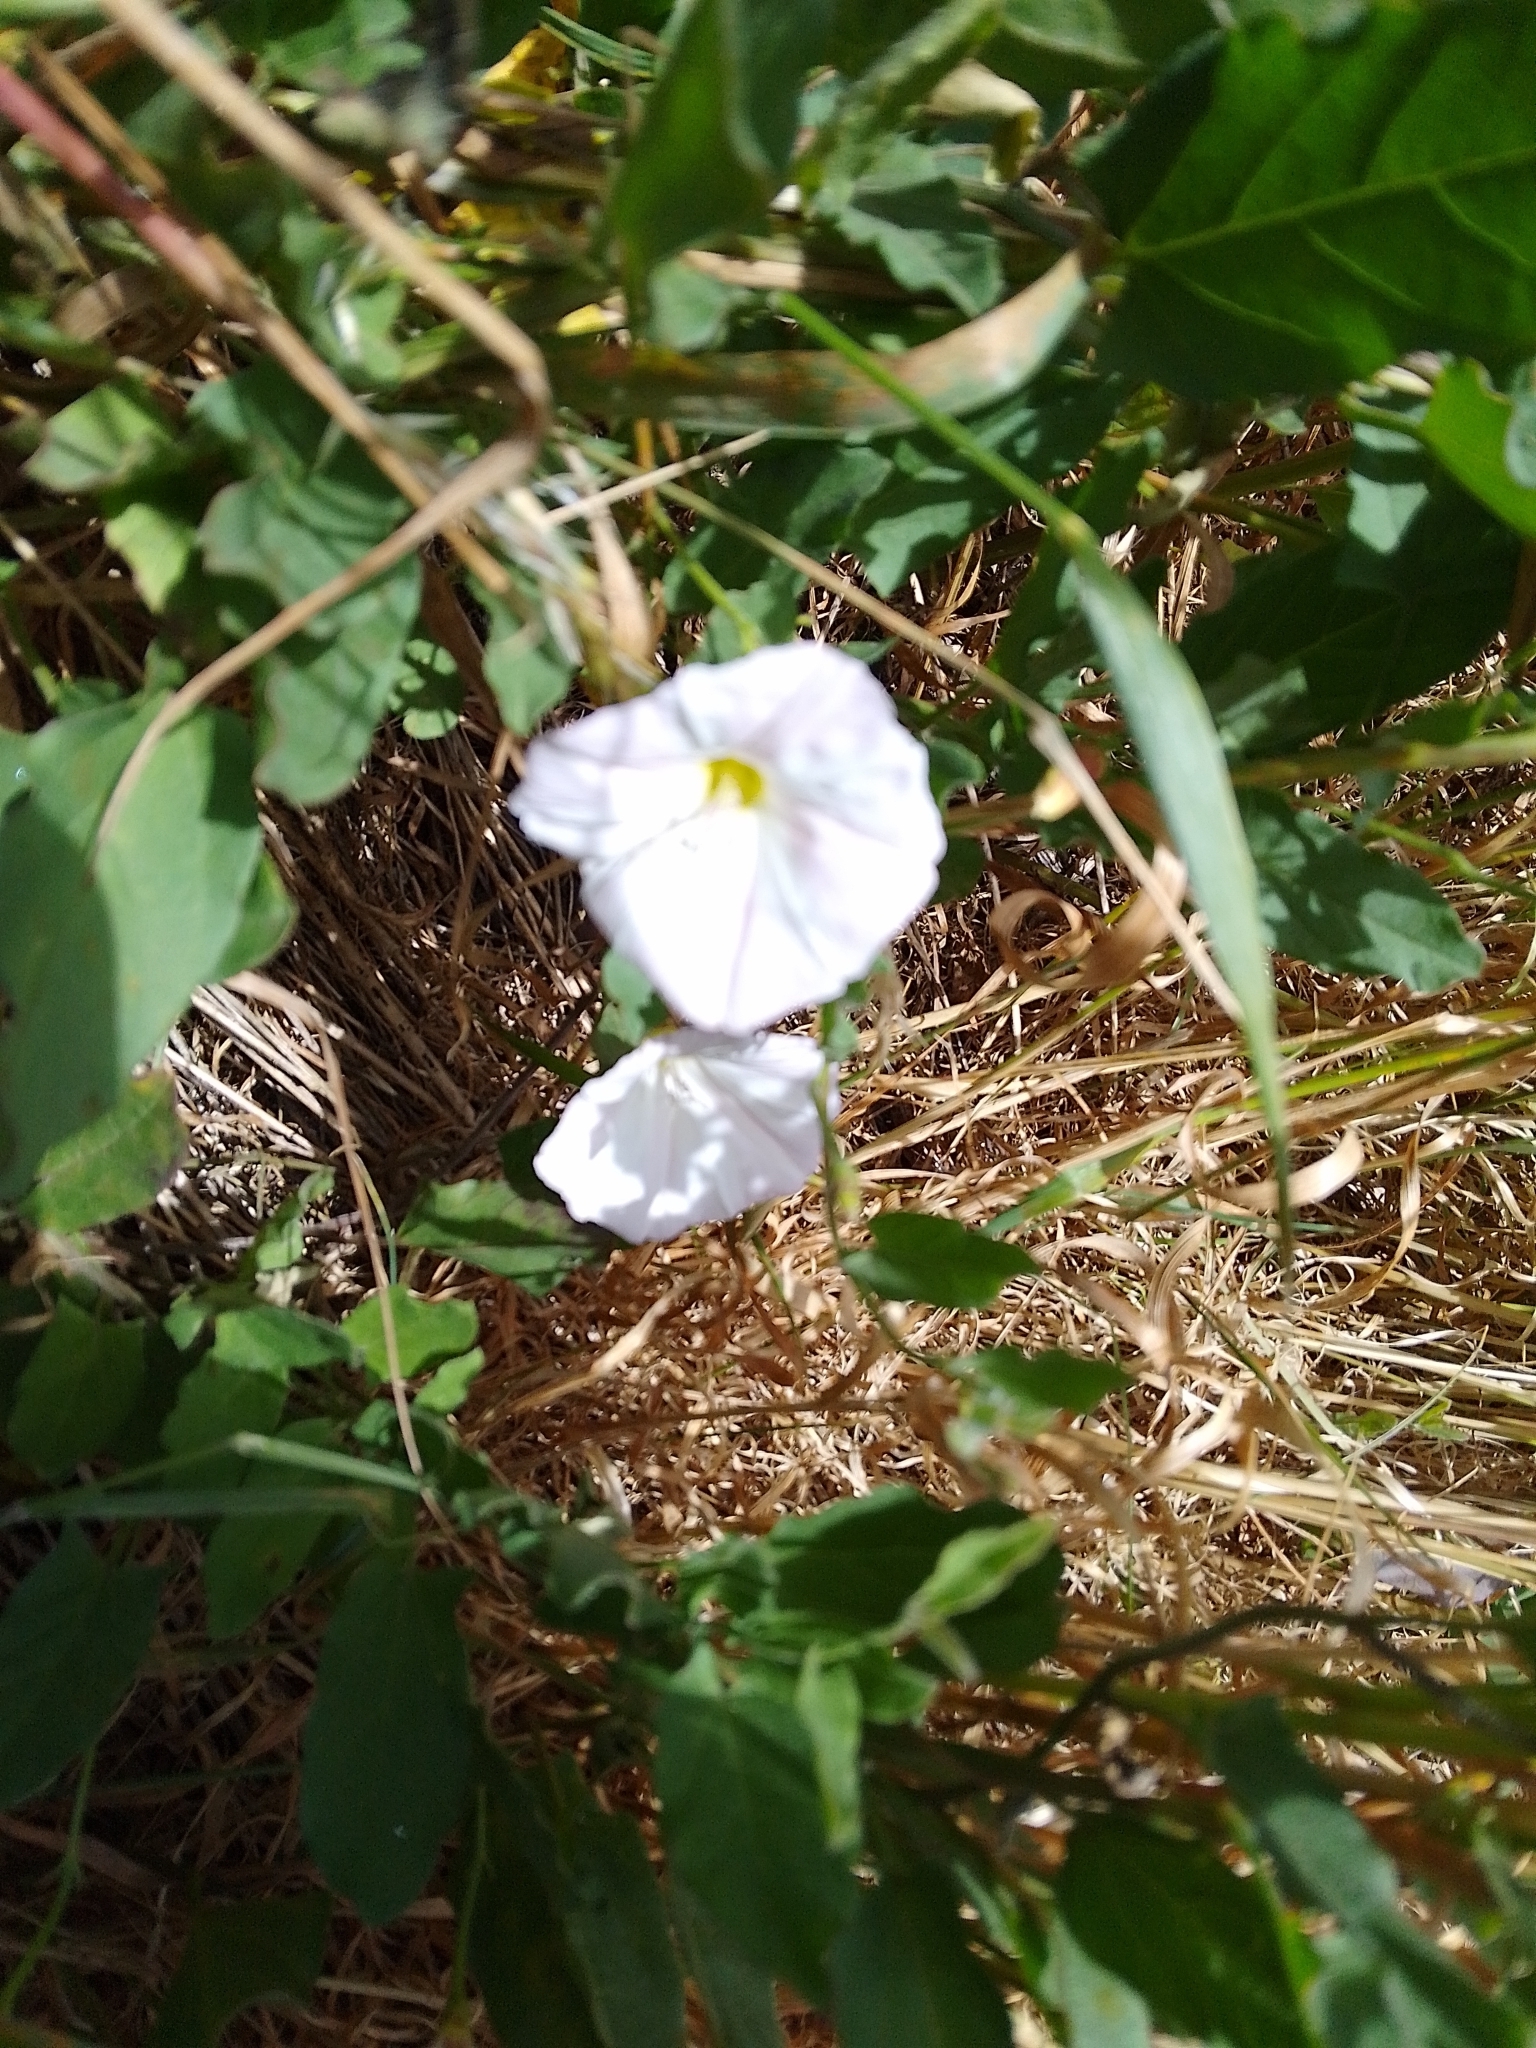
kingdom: Plantae
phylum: Tracheophyta
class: Magnoliopsida
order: Solanales
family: Convolvulaceae
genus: Convolvulus
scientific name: Convolvulus arvensis
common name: Field bindweed
